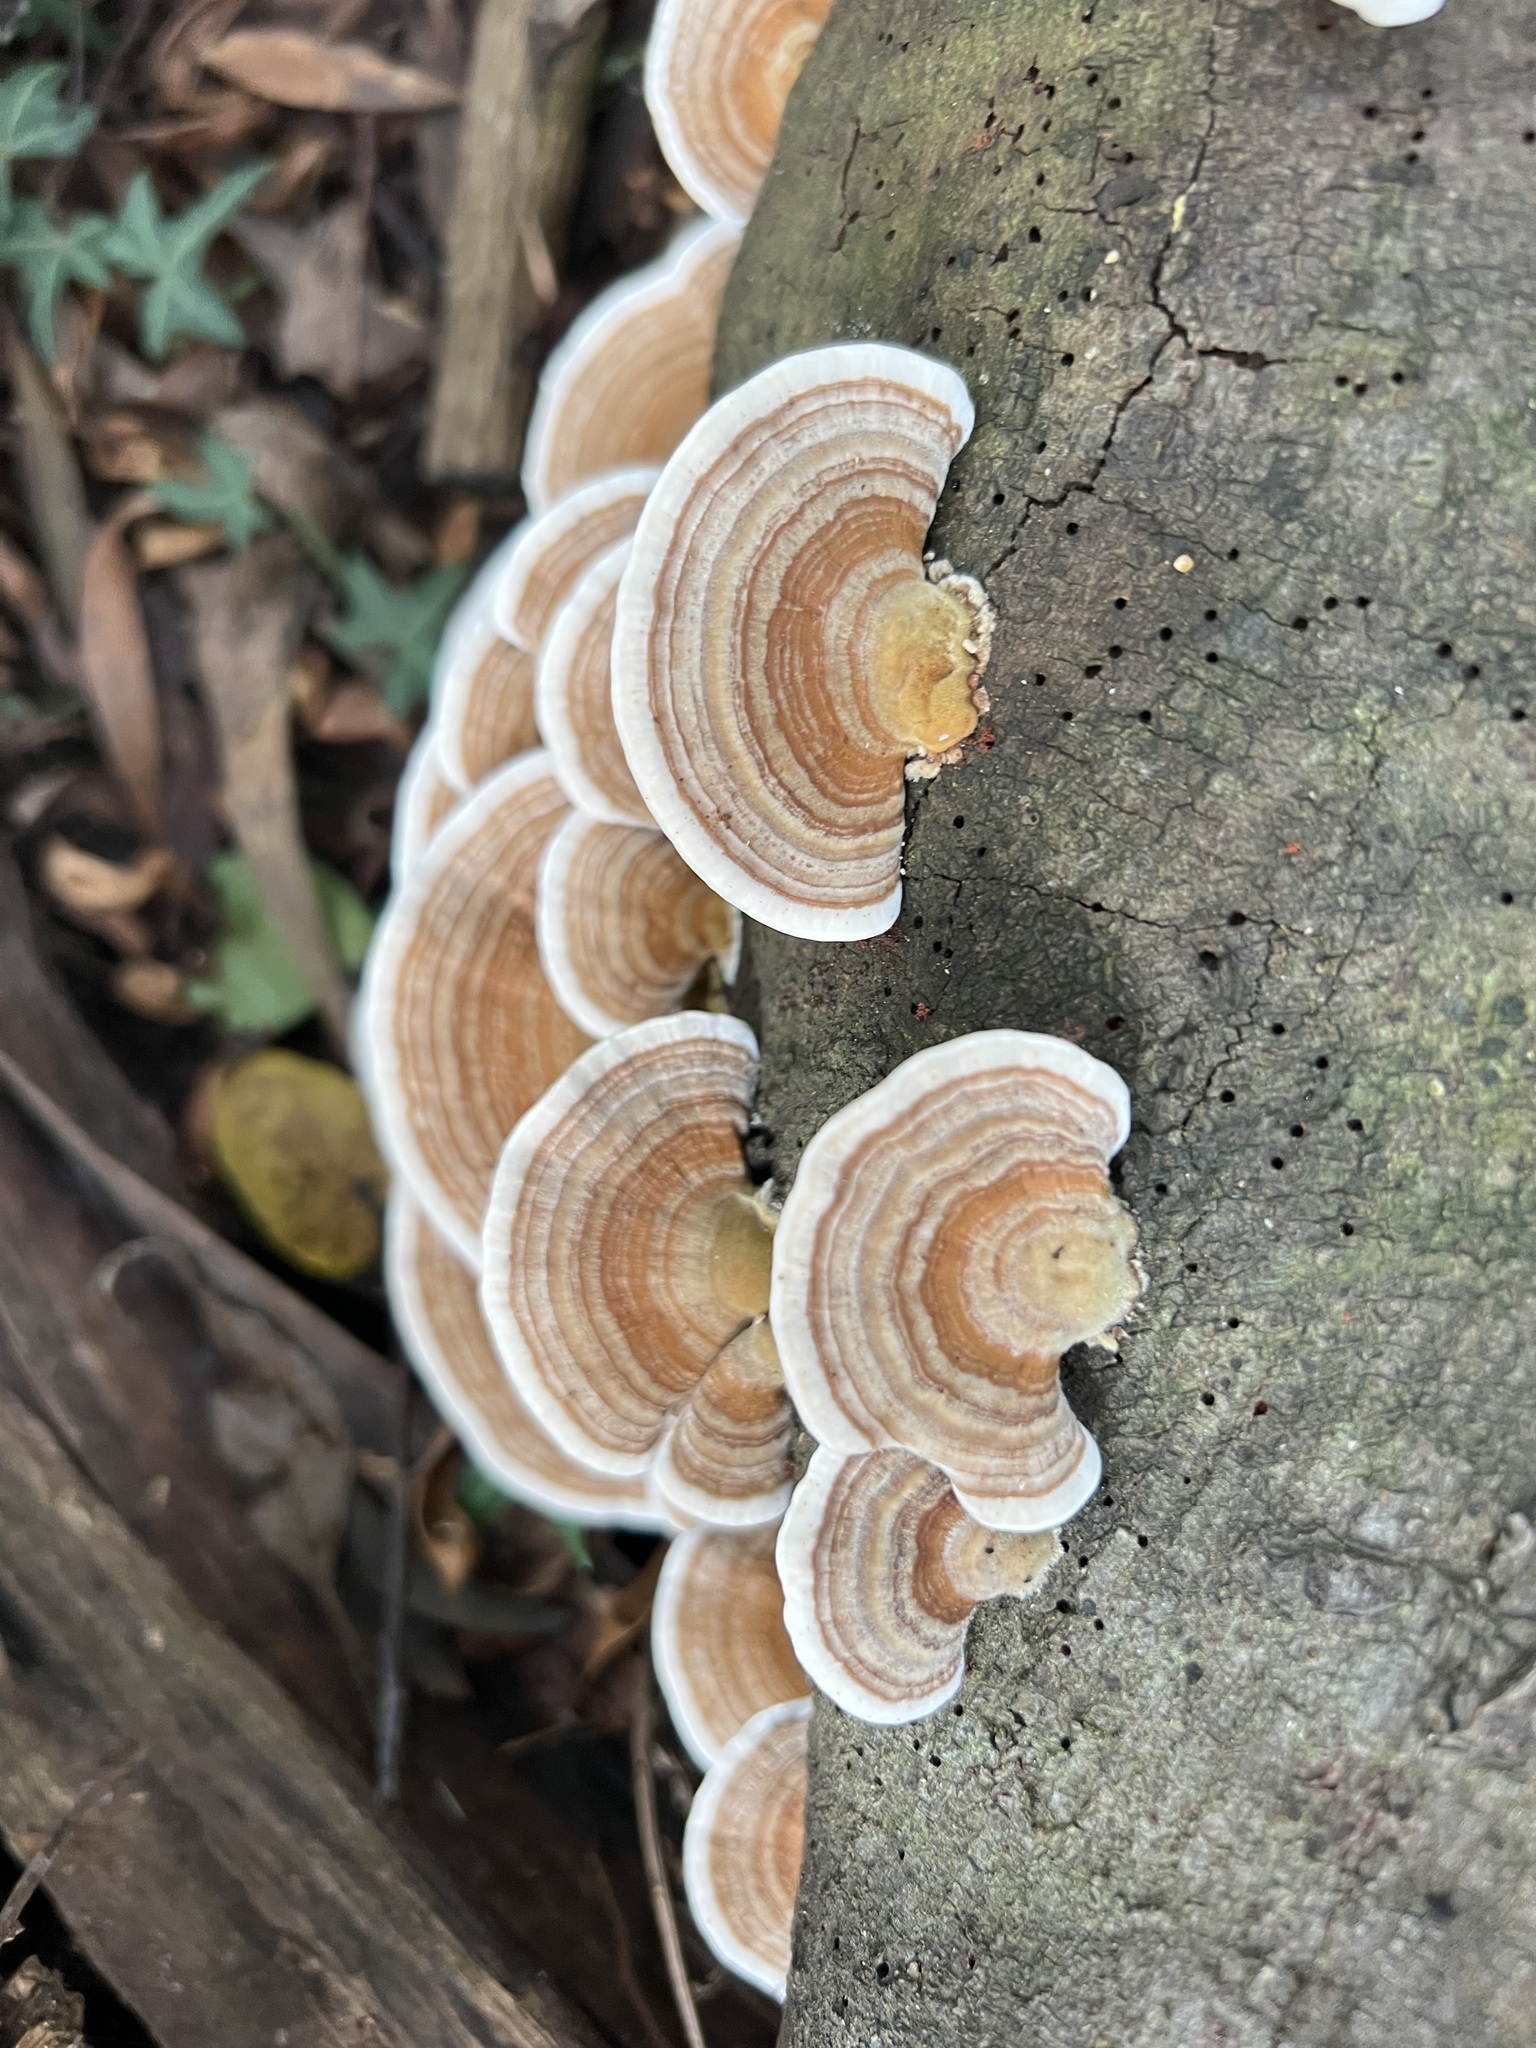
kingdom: Fungi
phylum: Basidiomycota
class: Agaricomycetes
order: Polyporales
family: Polyporaceae
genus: Trametes
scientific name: Trametes versicolor
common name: Turkeytail
